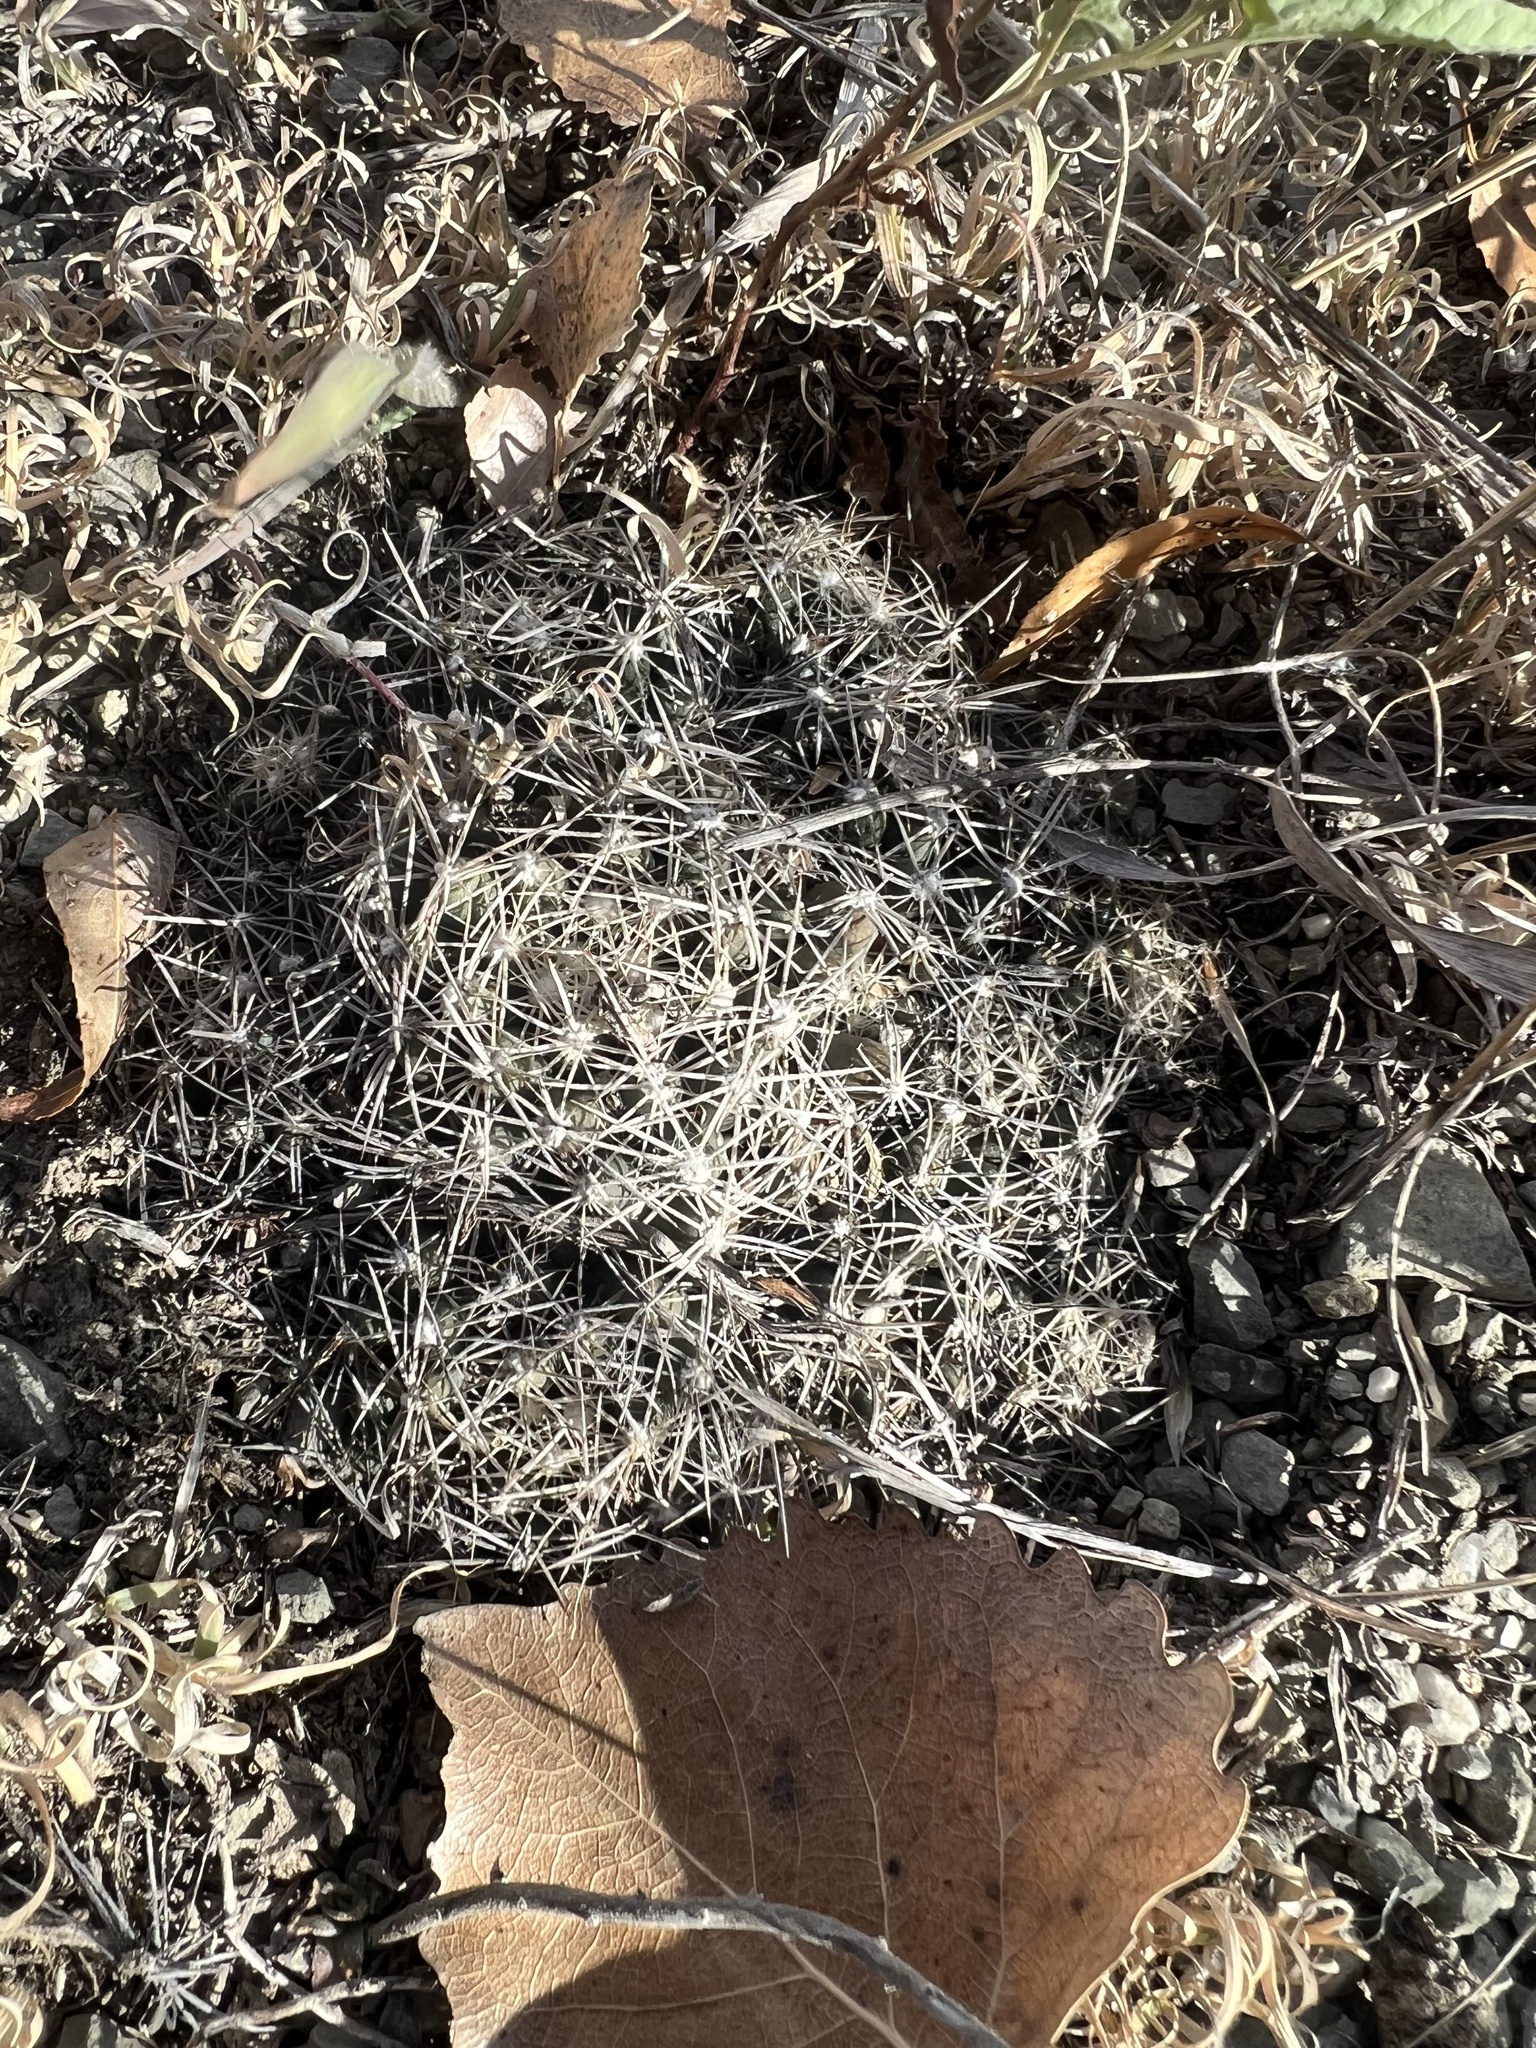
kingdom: Plantae
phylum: Tracheophyta
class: Magnoliopsida
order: Caryophyllales
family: Cactaceae
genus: Pelecyphora
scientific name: Pelecyphora missouriensis
